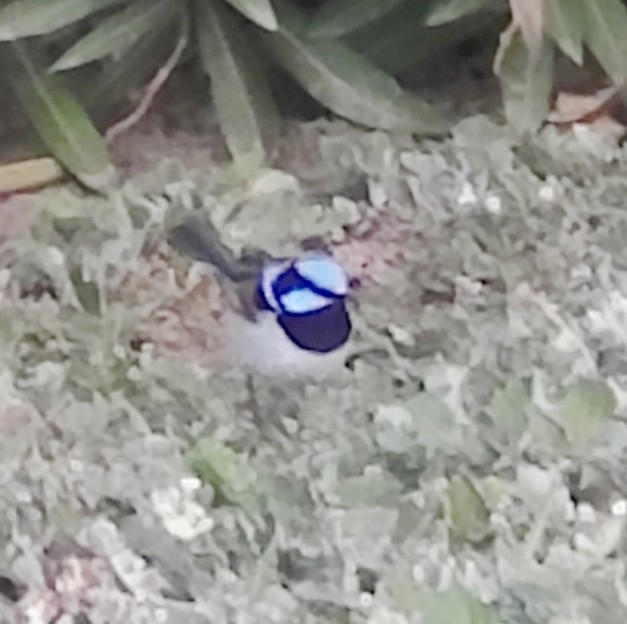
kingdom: Animalia
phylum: Chordata
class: Aves
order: Passeriformes
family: Maluridae
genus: Malurus
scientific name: Malurus cyaneus
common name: Superb fairywren
